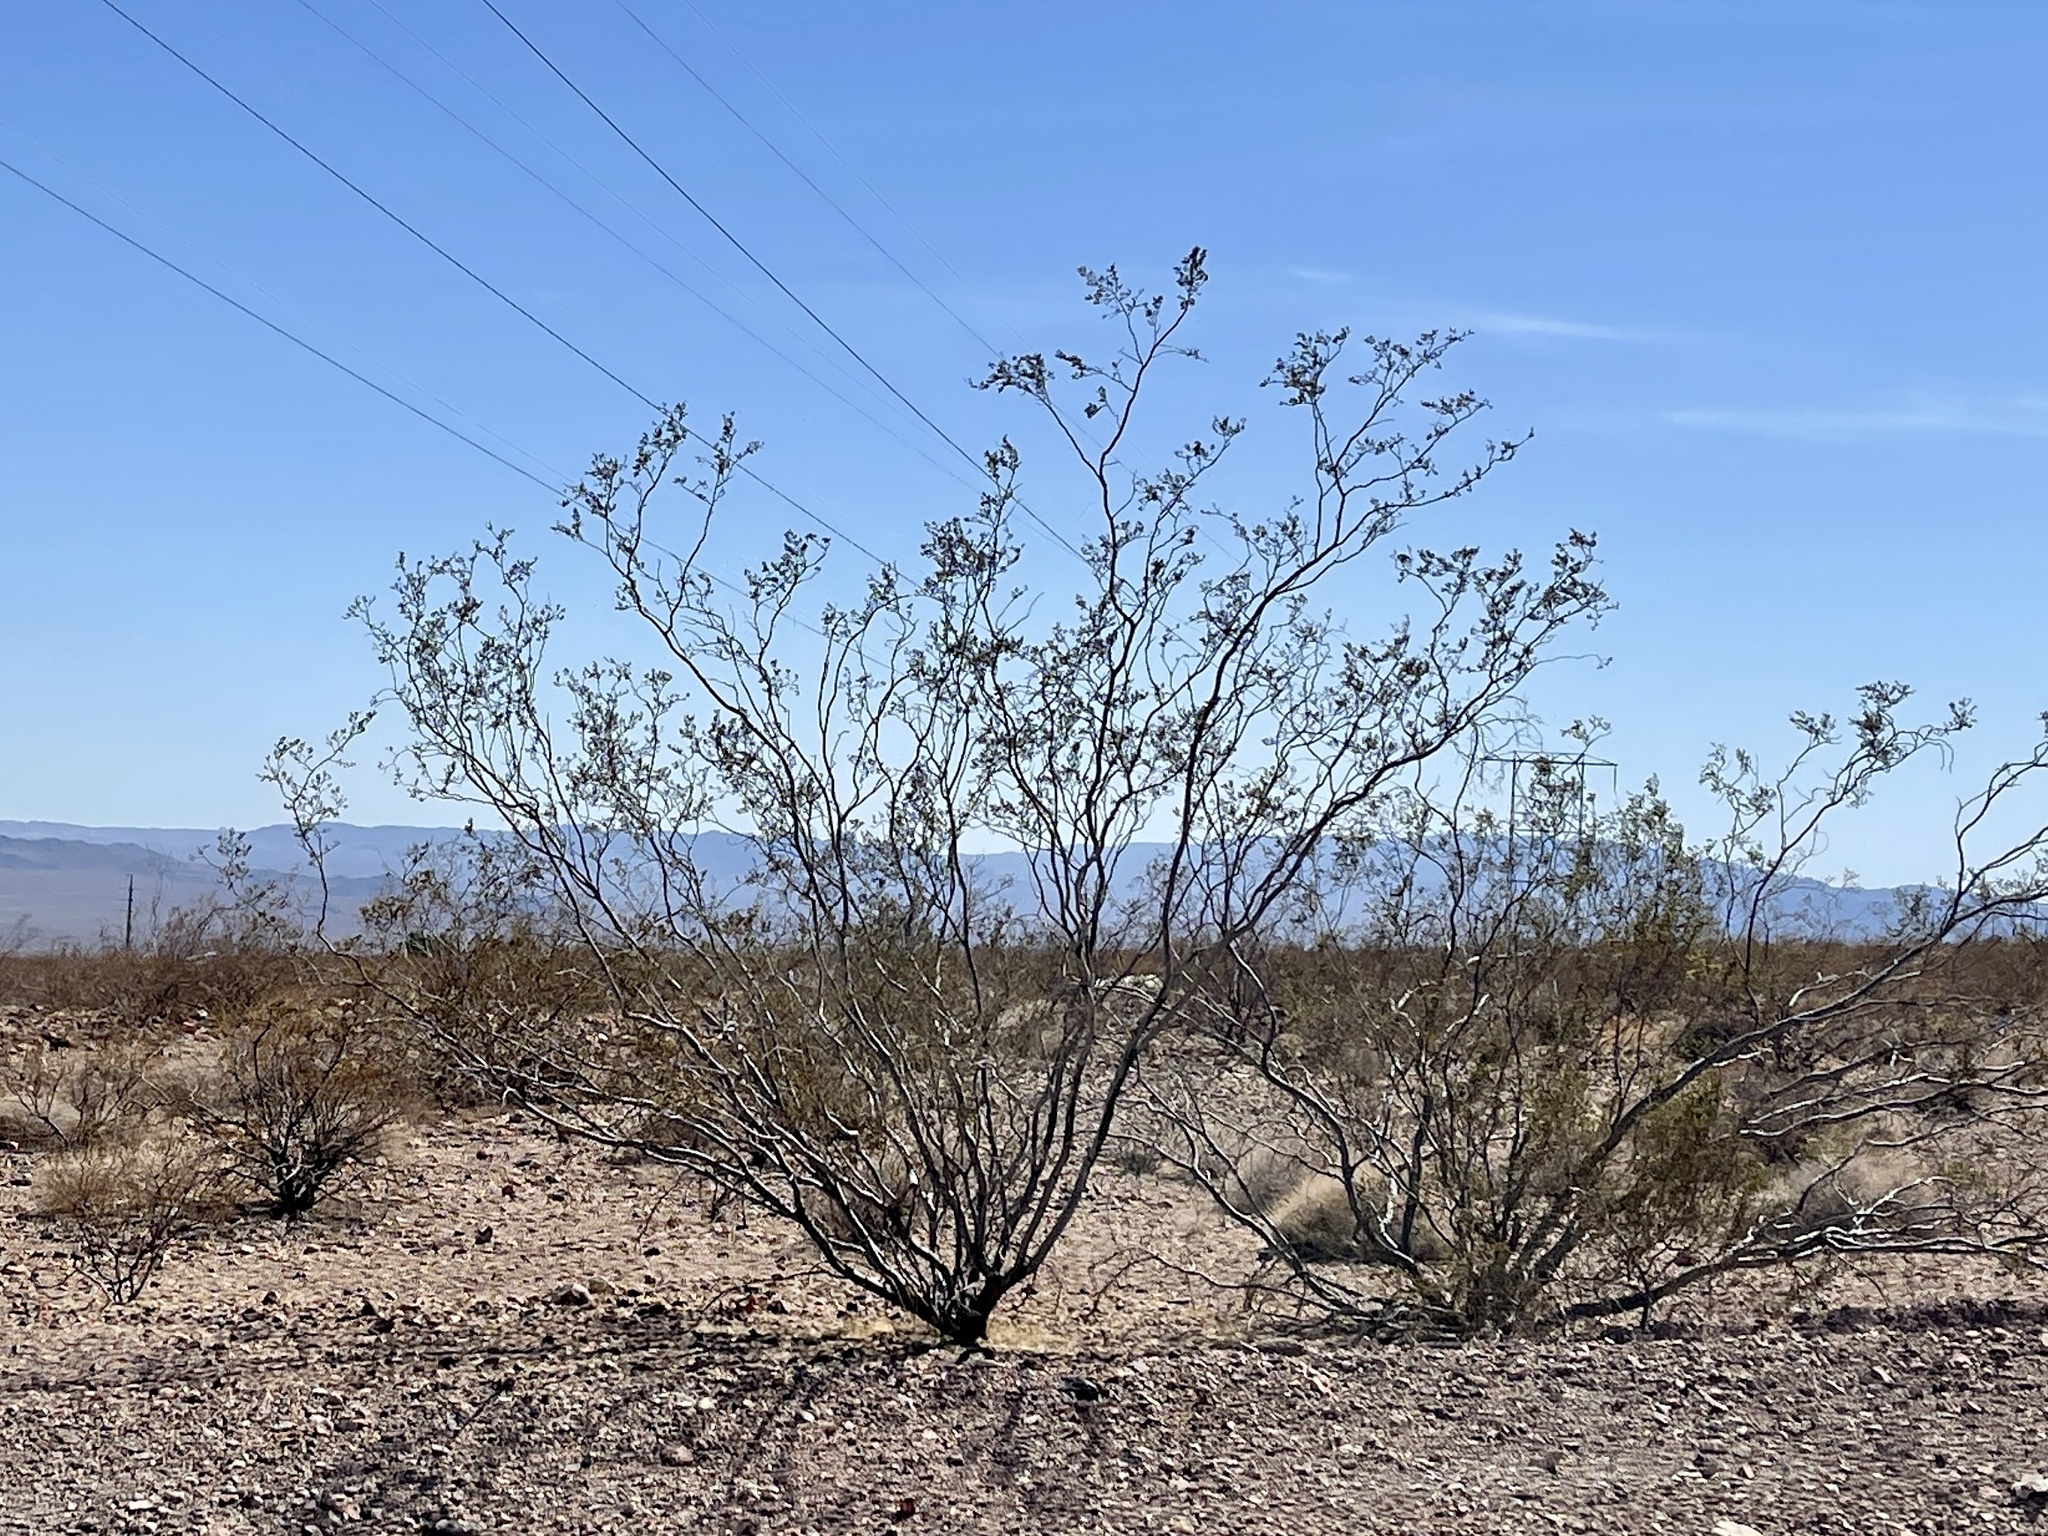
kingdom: Plantae
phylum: Tracheophyta
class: Magnoliopsida
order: Zygophyllales
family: Zygophyllaceae
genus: Larrea
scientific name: Larrea tridentata
